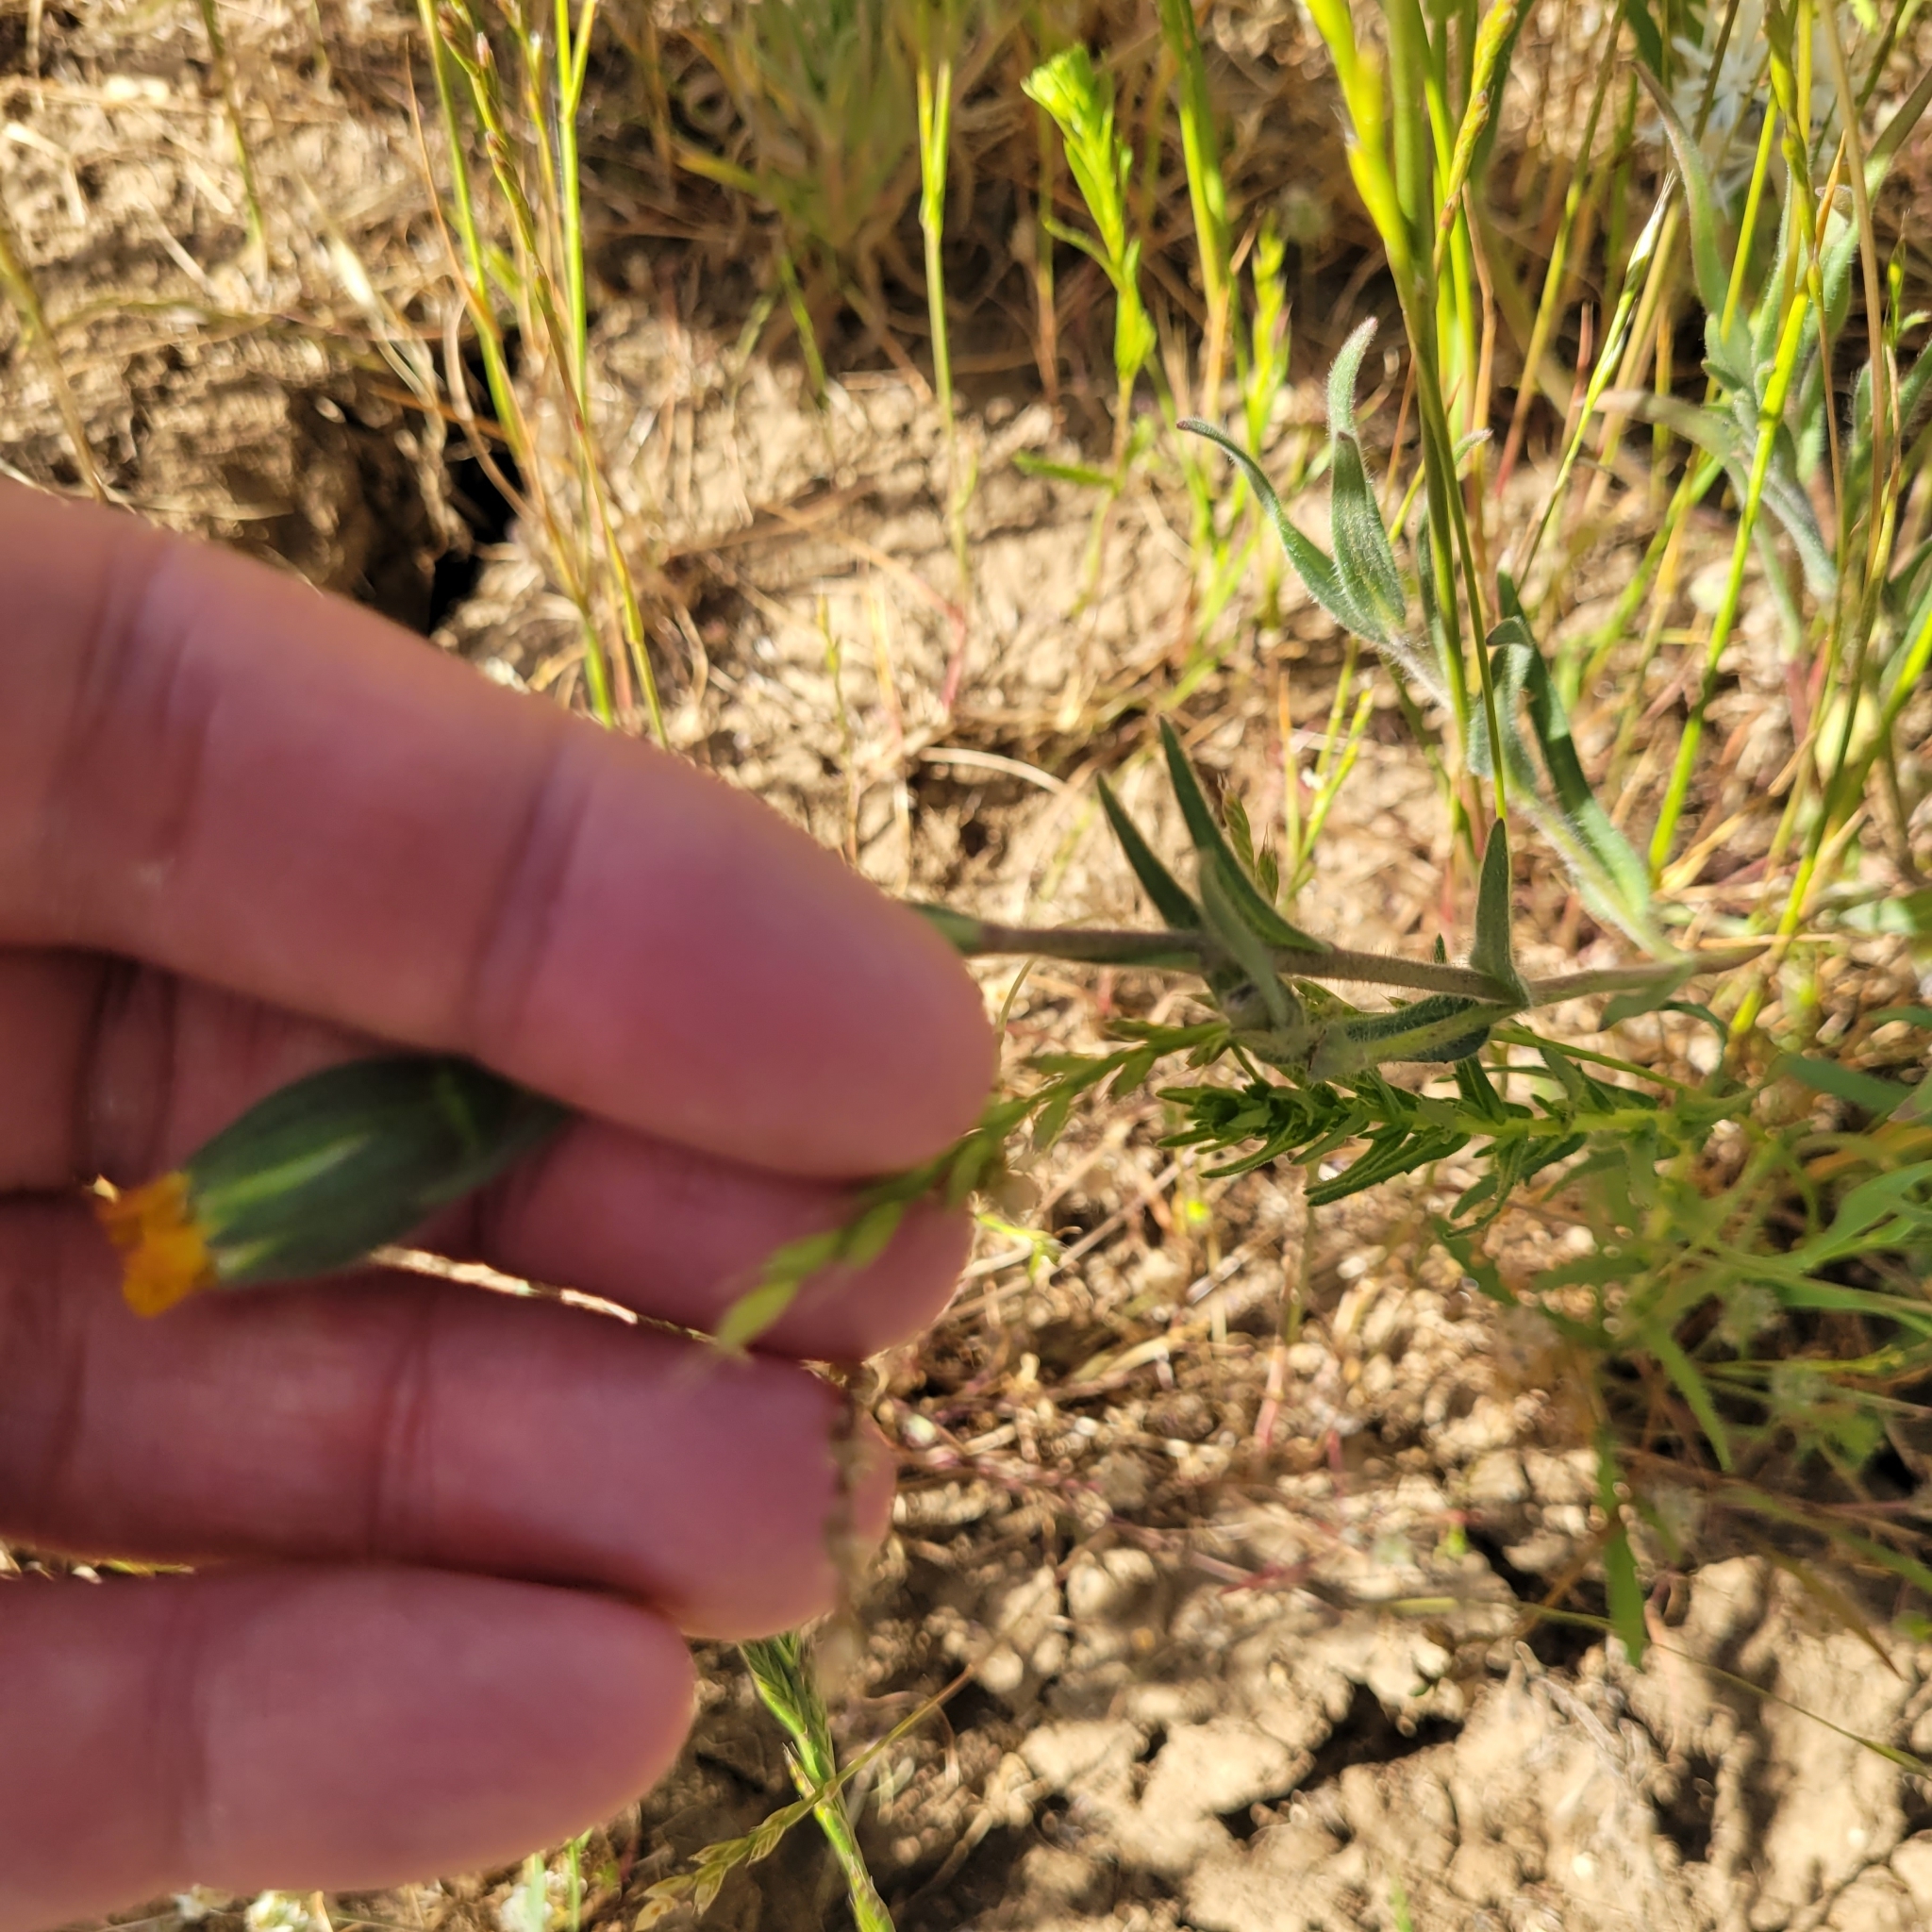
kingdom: Plantae
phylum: Tracheophyta
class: Magnoliopsida
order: Asterales
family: Asteraceae
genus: Achyrachaena
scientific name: Achyrachaena mollis
